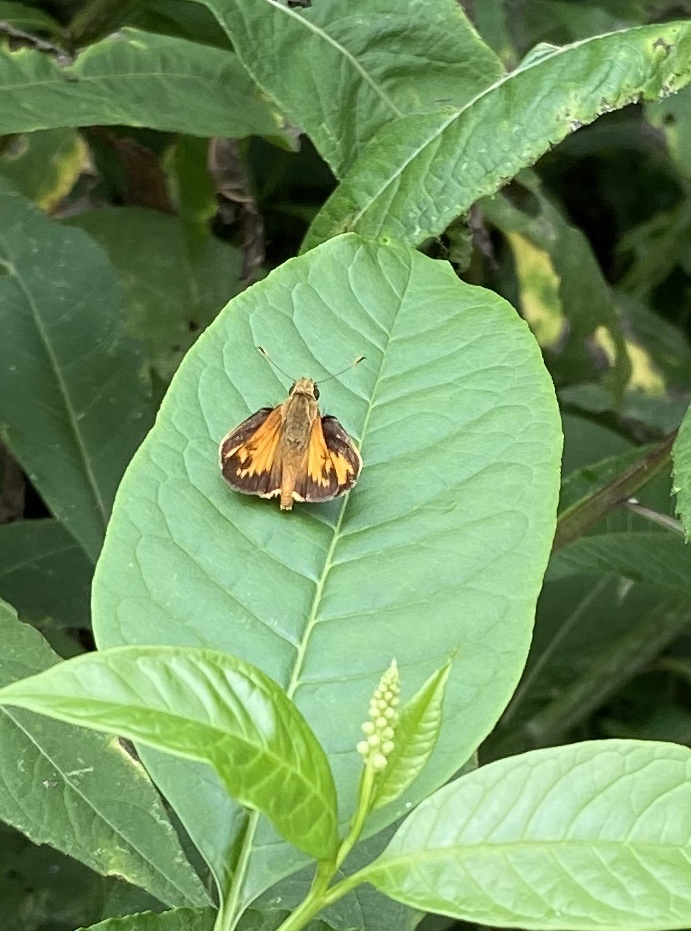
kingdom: Animalia
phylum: Arthropoda
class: Insecta
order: Lepidoptera
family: Hesperiidae
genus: Lon
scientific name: Lon zabulon
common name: Zabulon skipper
